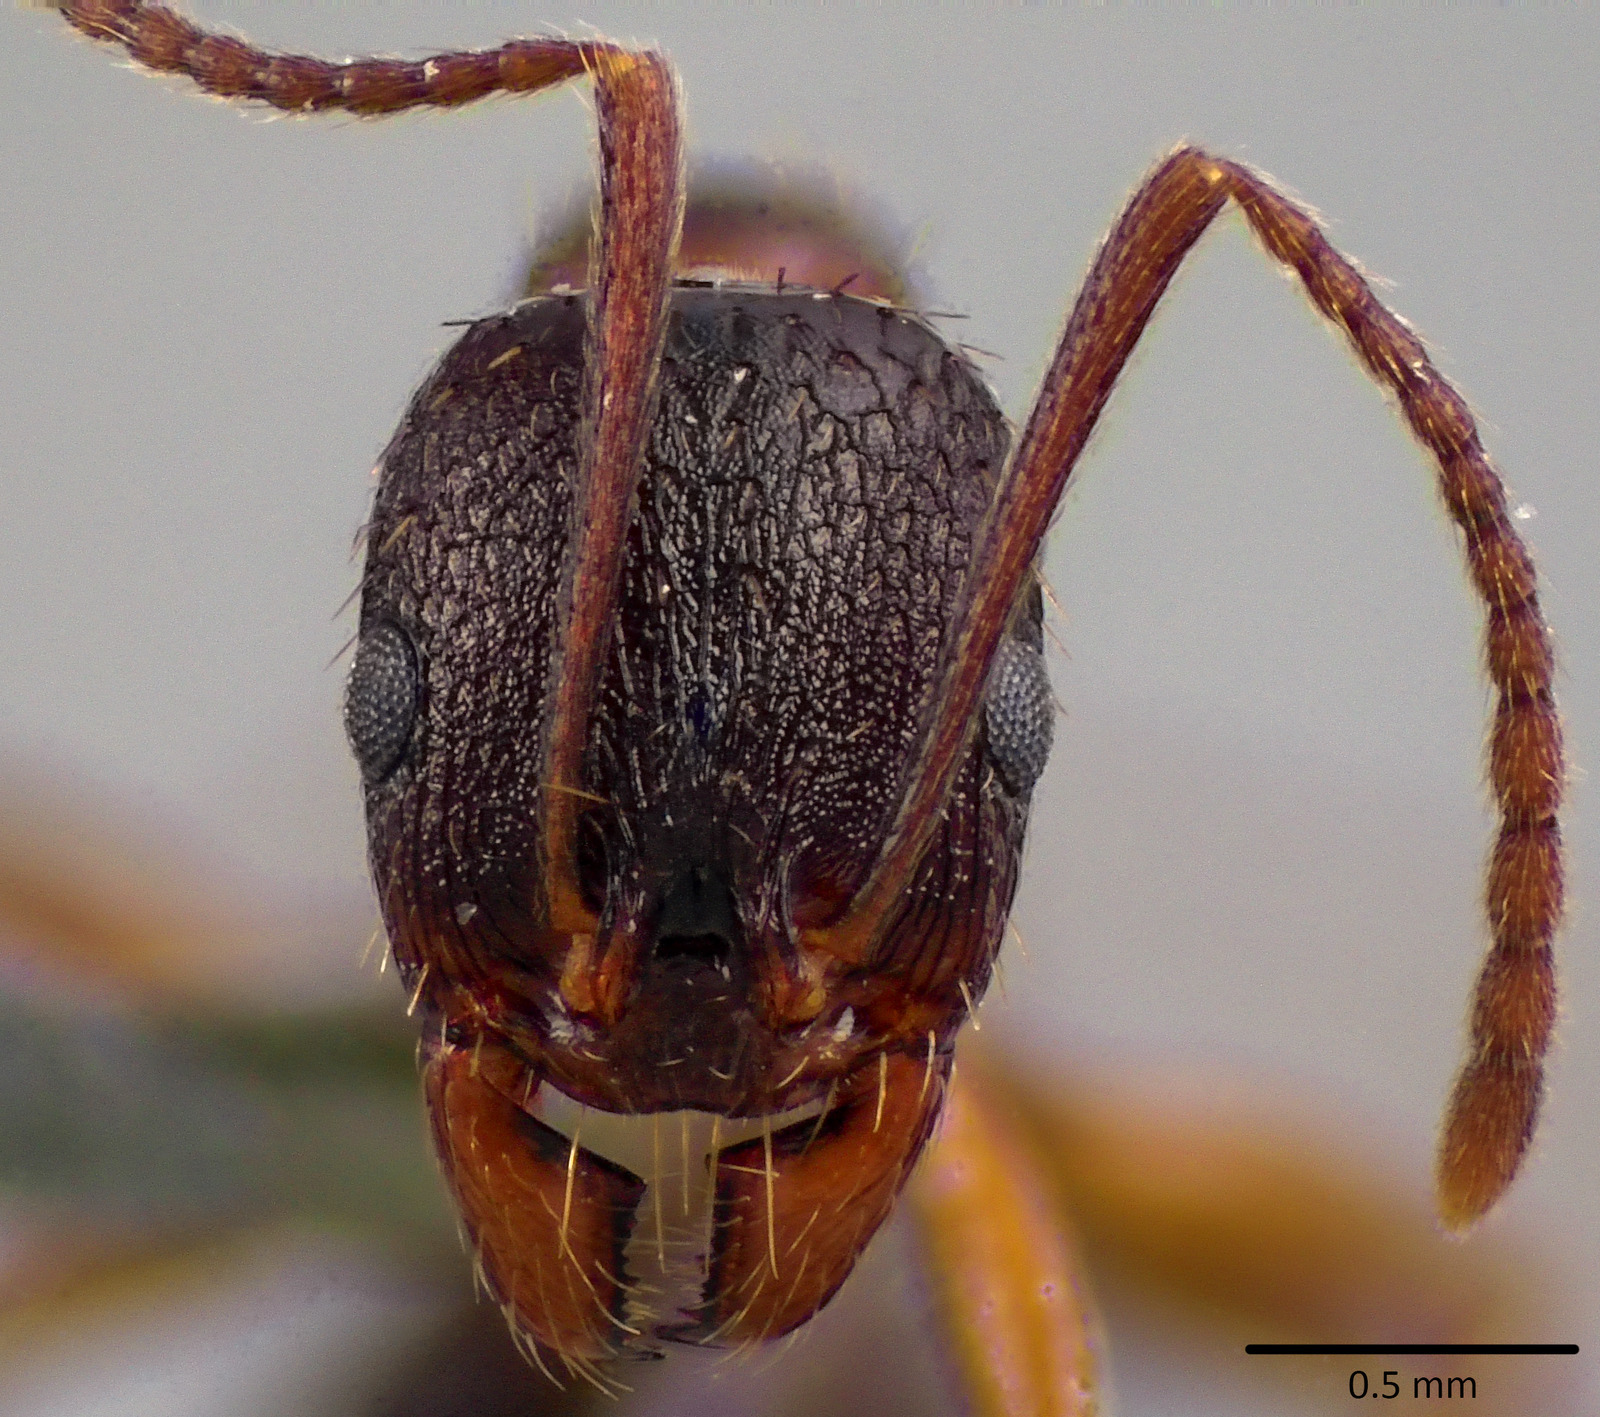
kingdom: Animalia
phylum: Arthropoda
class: Insecta
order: Hymenoptera
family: Formicidae
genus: Aphaenogaster
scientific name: Aphaenogaster rudis
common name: Winnow ant
